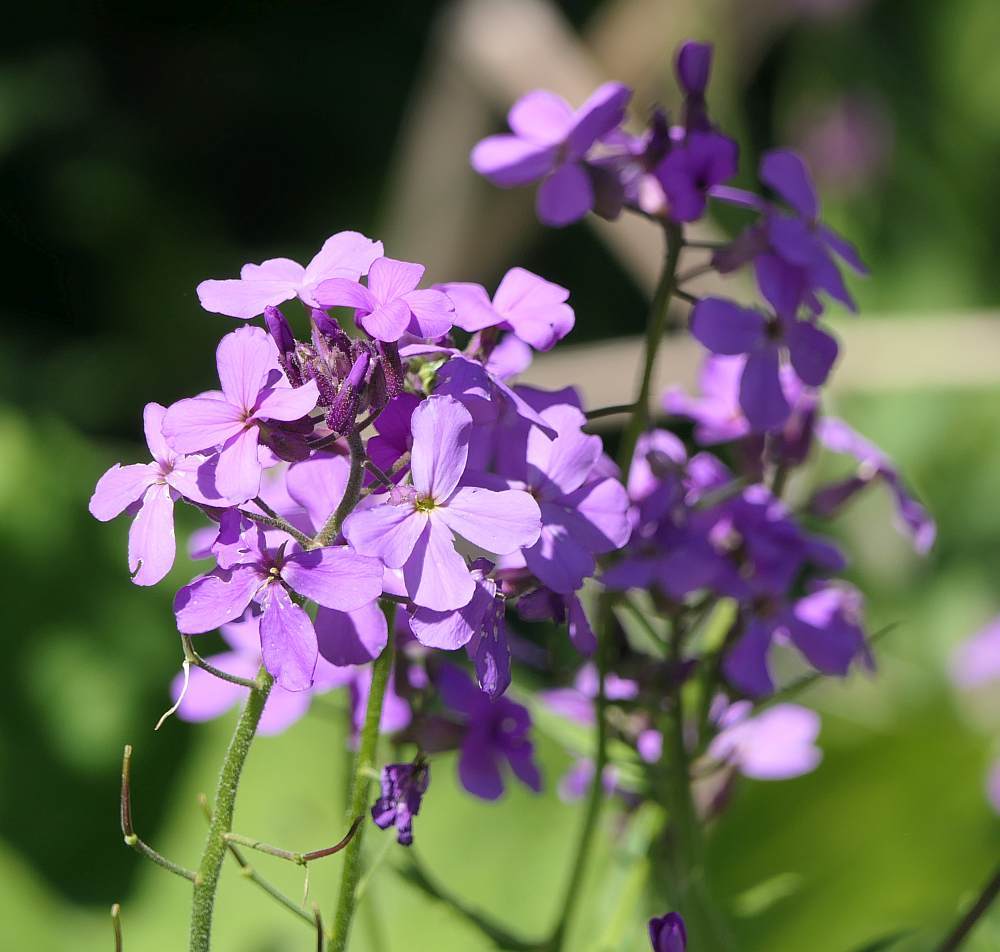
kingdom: Plantae
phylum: Tracheophyta
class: Magnoliopsida
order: Brassicales
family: Brassicaceae
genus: Hesperis
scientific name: Hesperis matronalis
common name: Dame's-violet
